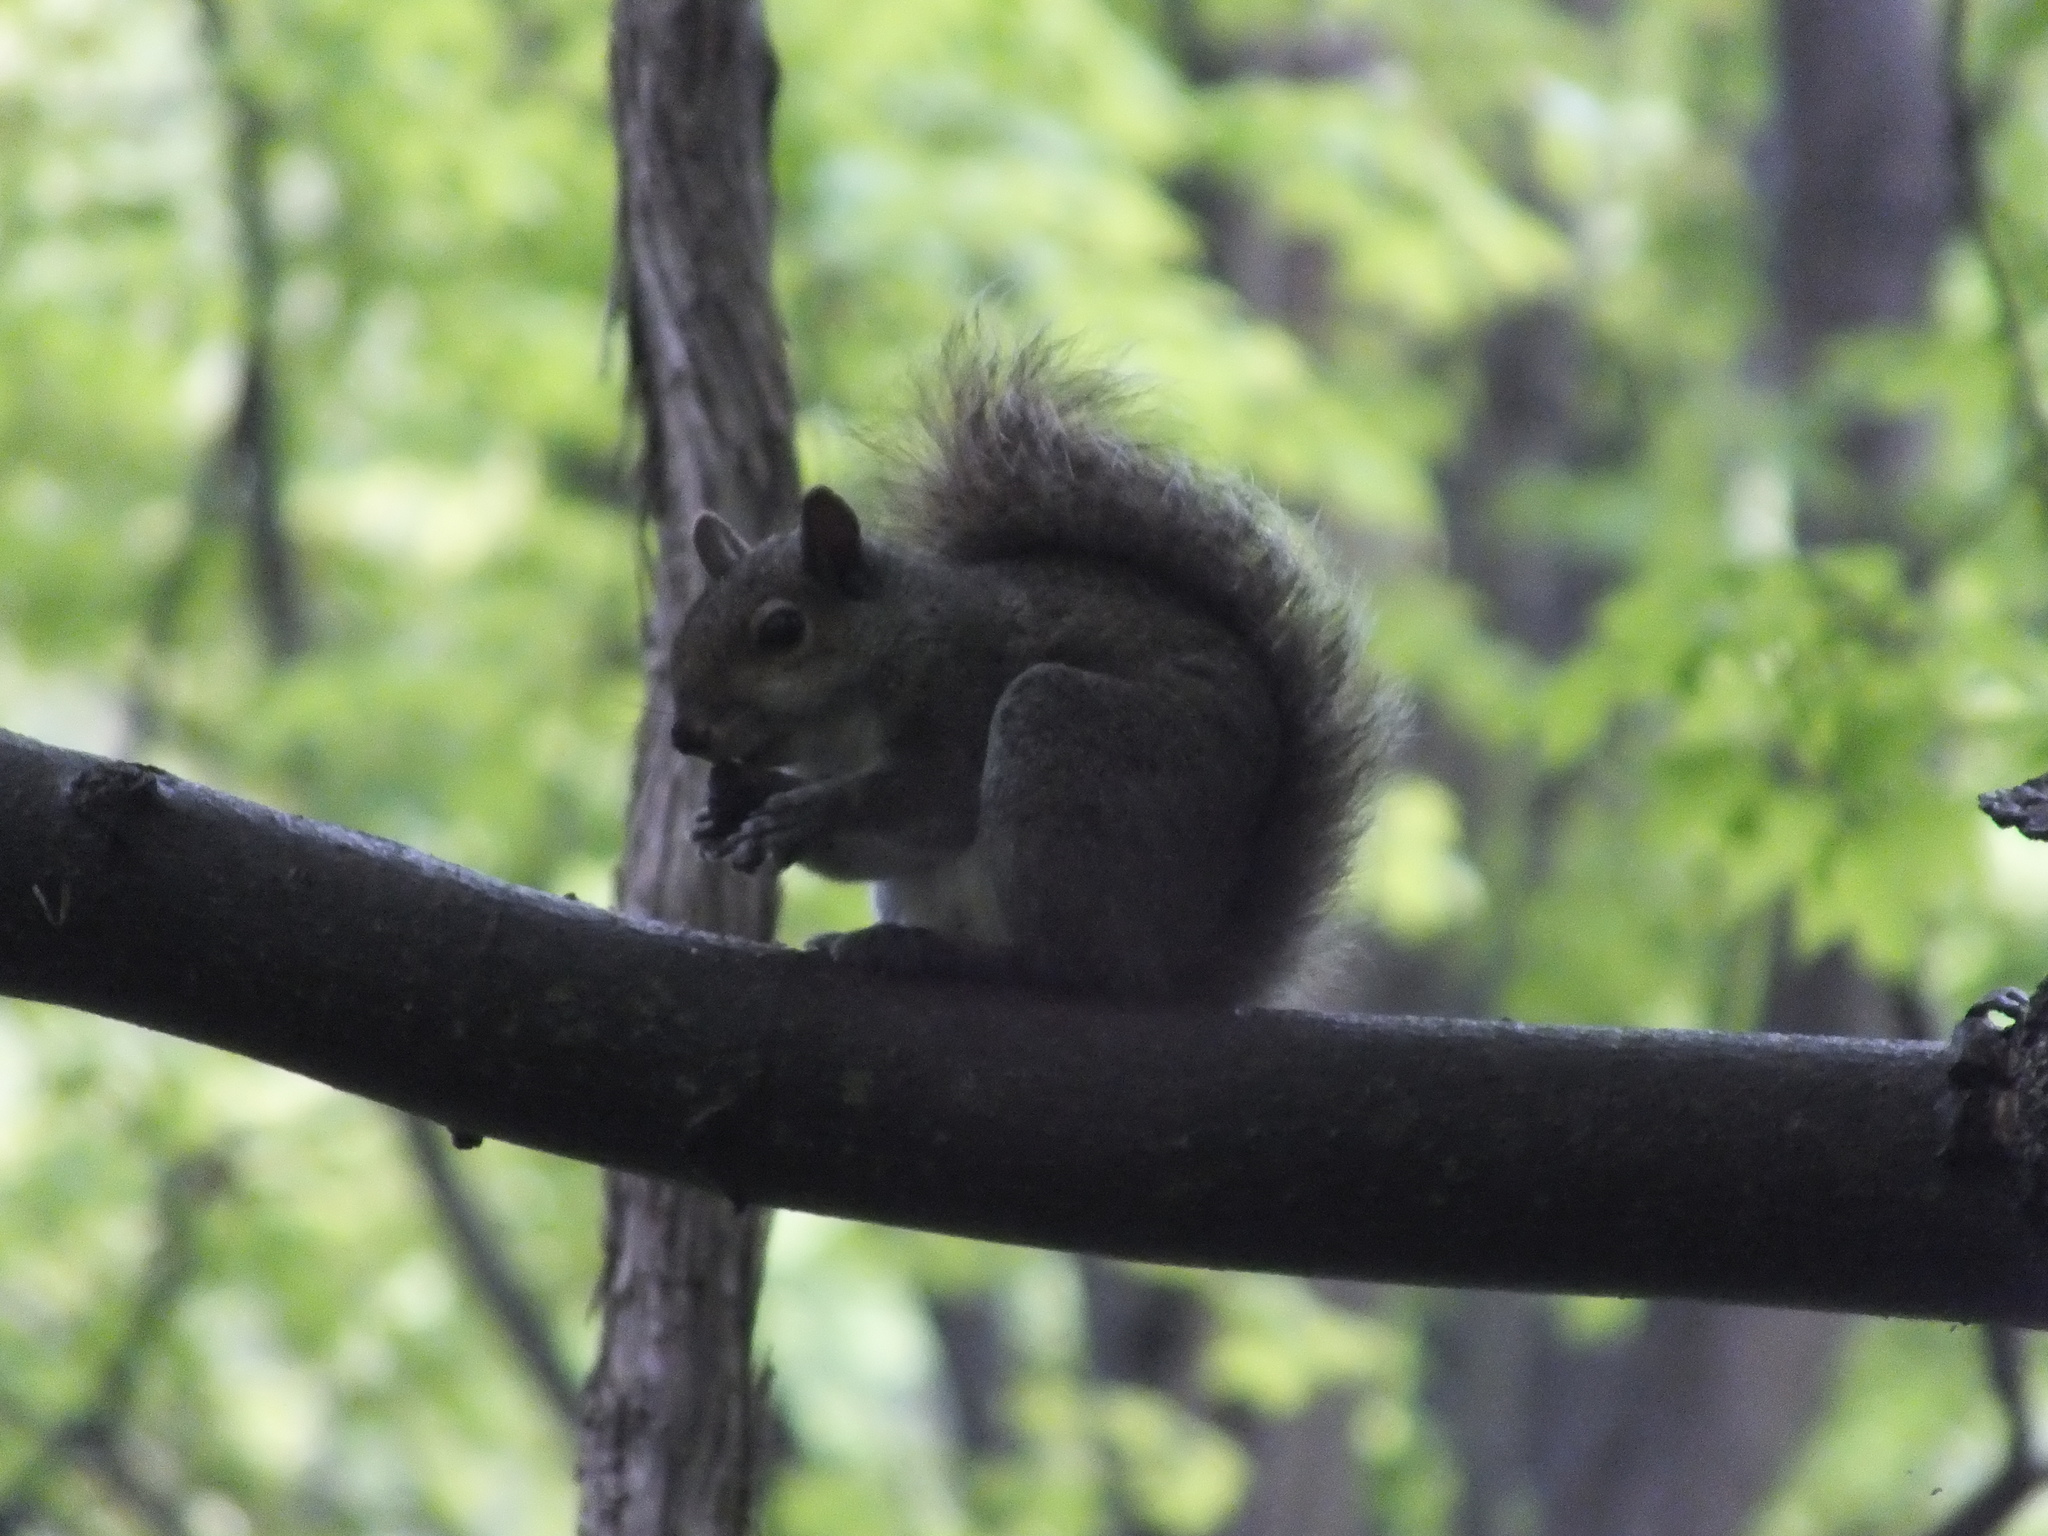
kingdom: Animalia
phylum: Chordata
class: Mammalia
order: Rodentia
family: Sciuridae
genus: Sciurus
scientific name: Sciurus carolinensis
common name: Eastern gray squirrel
